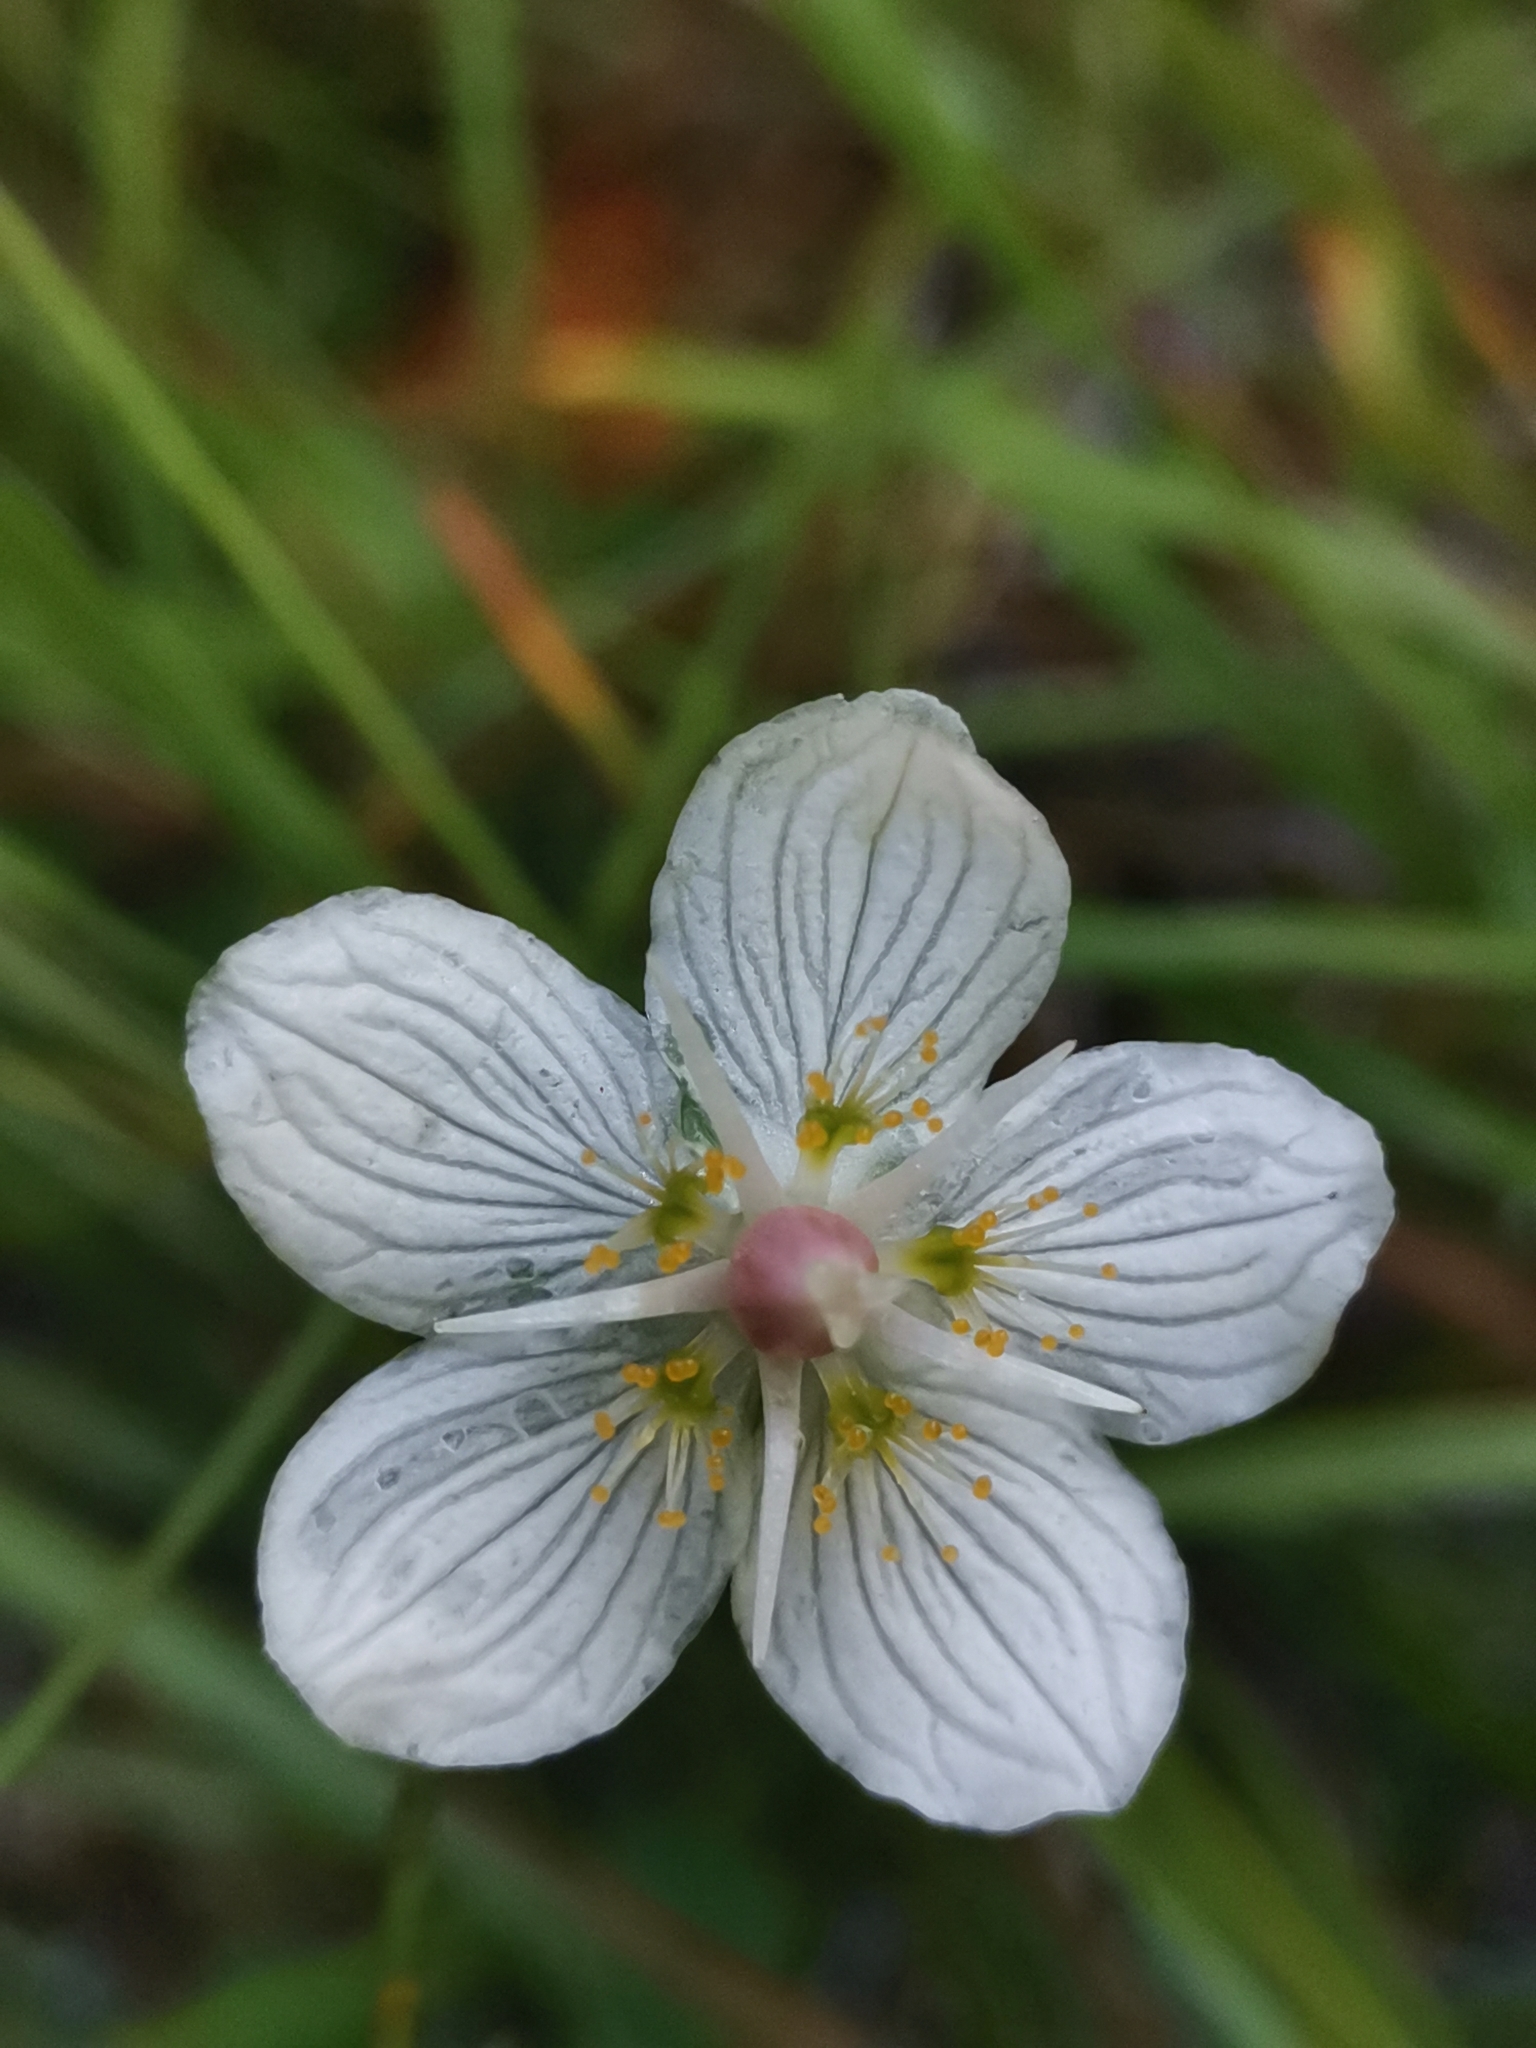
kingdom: Plantae
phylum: Tracheophyta
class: Magnoliopsida
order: Celastrales
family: Parnassiaceae
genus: Parnassia
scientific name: Parnassia palustris
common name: Grass-of-parnassus
